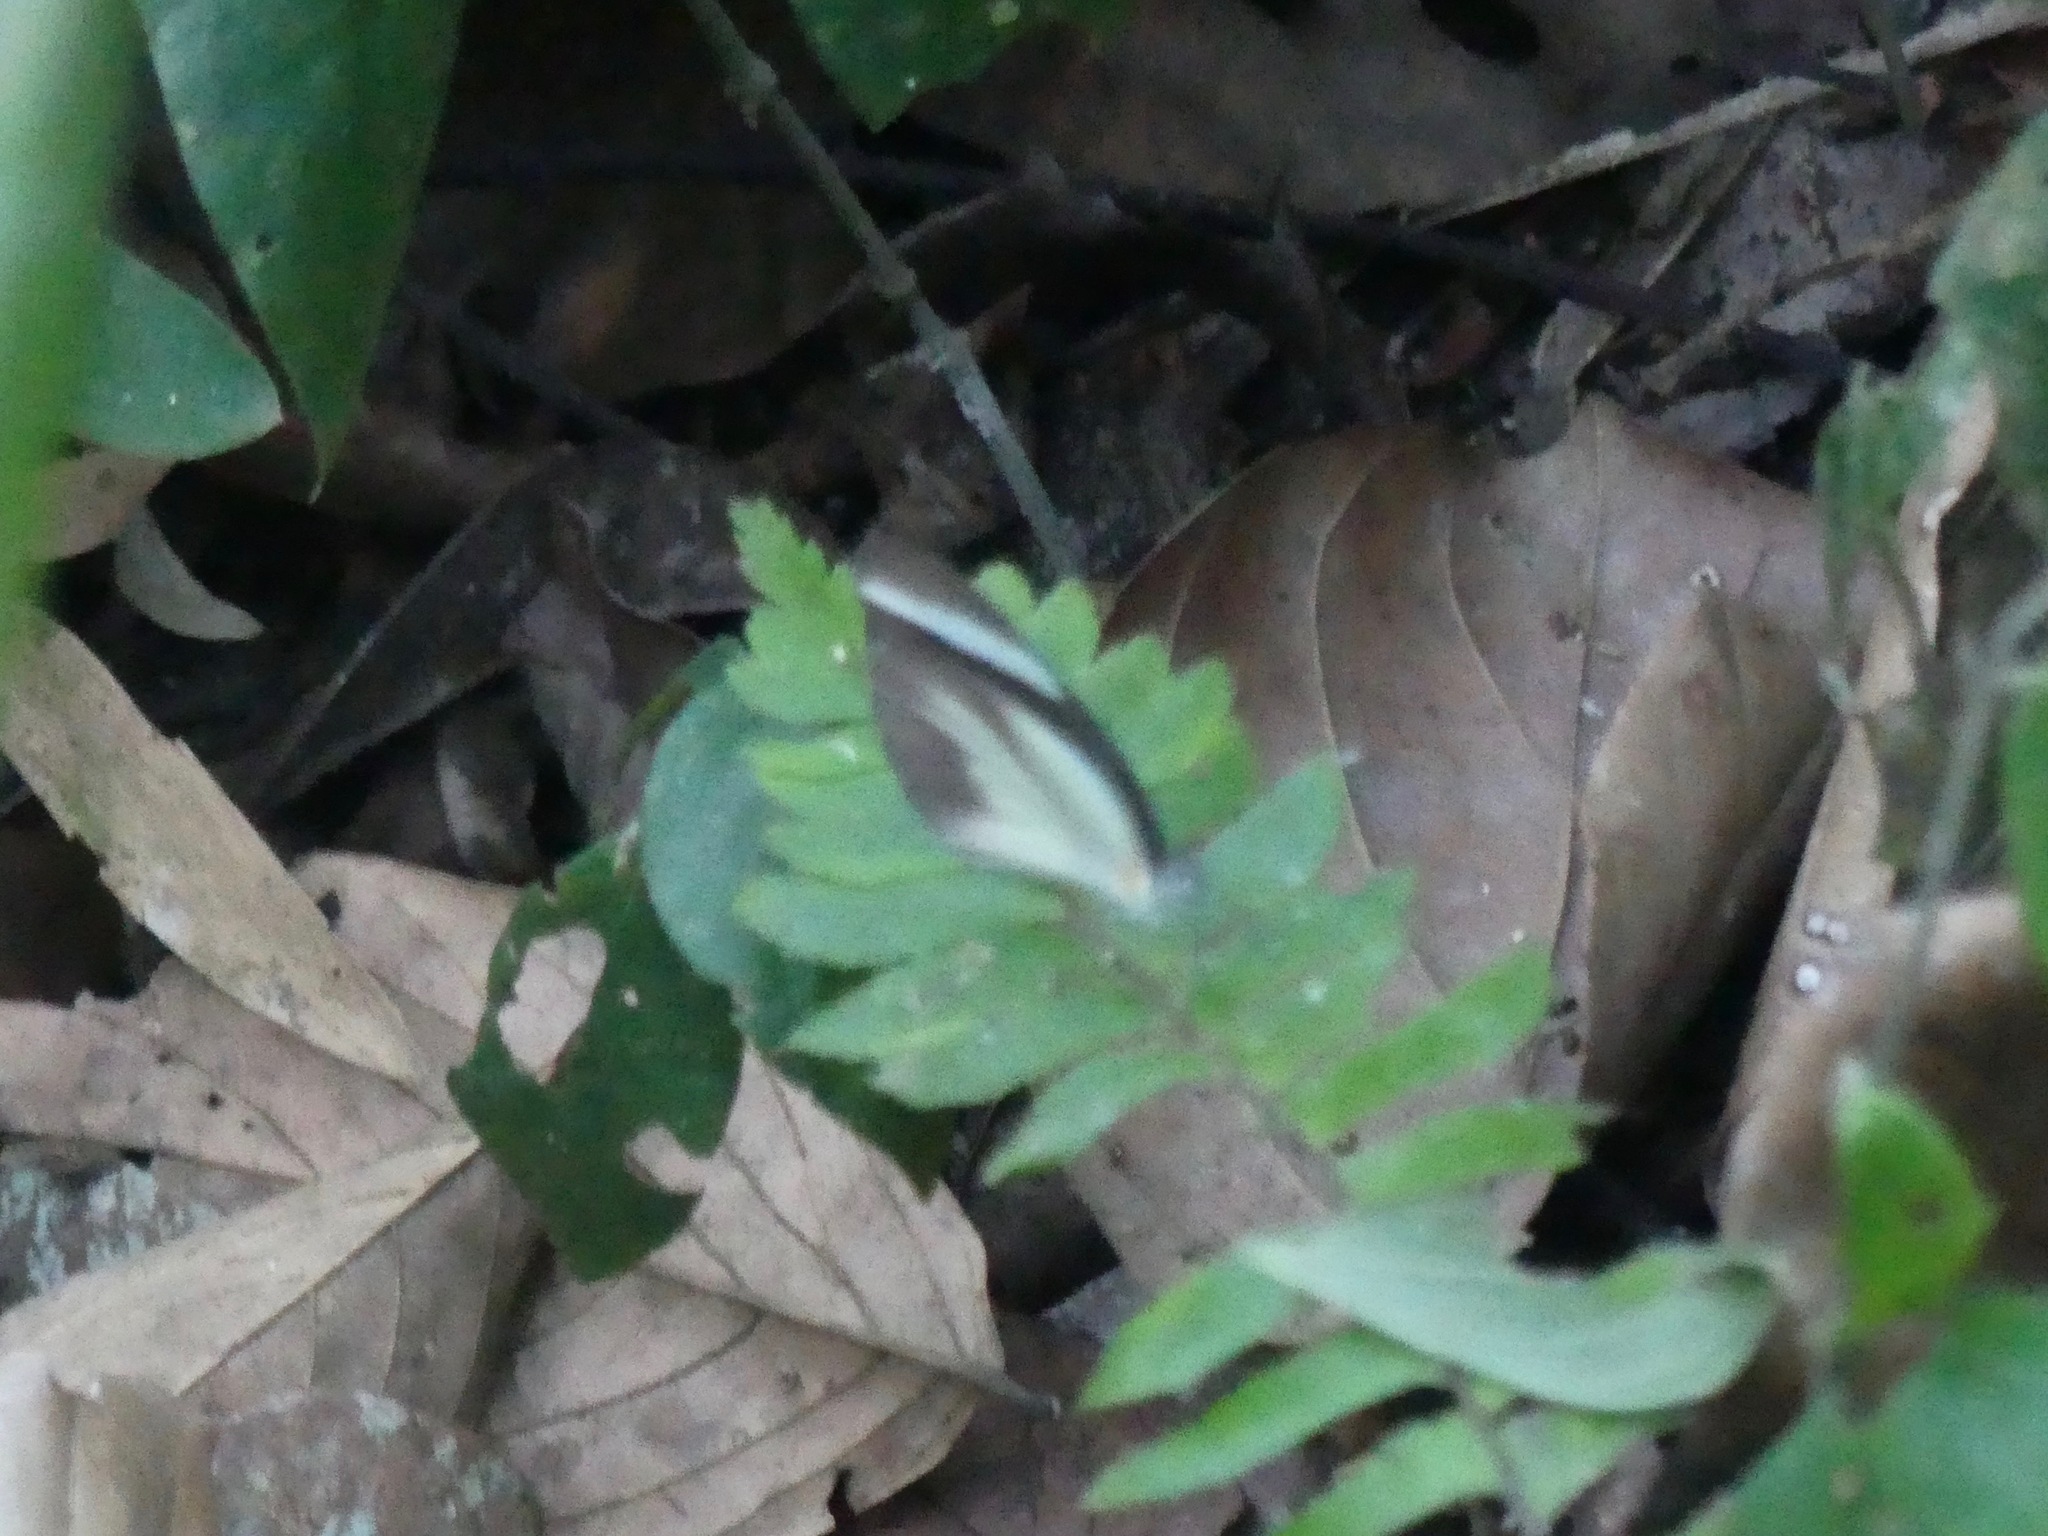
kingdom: Animalia
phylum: Arthropoda
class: Insecta
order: Lepidoptera
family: Pieridae
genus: Itaballia
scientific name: Itaballia demophile
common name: Cross-barred white
